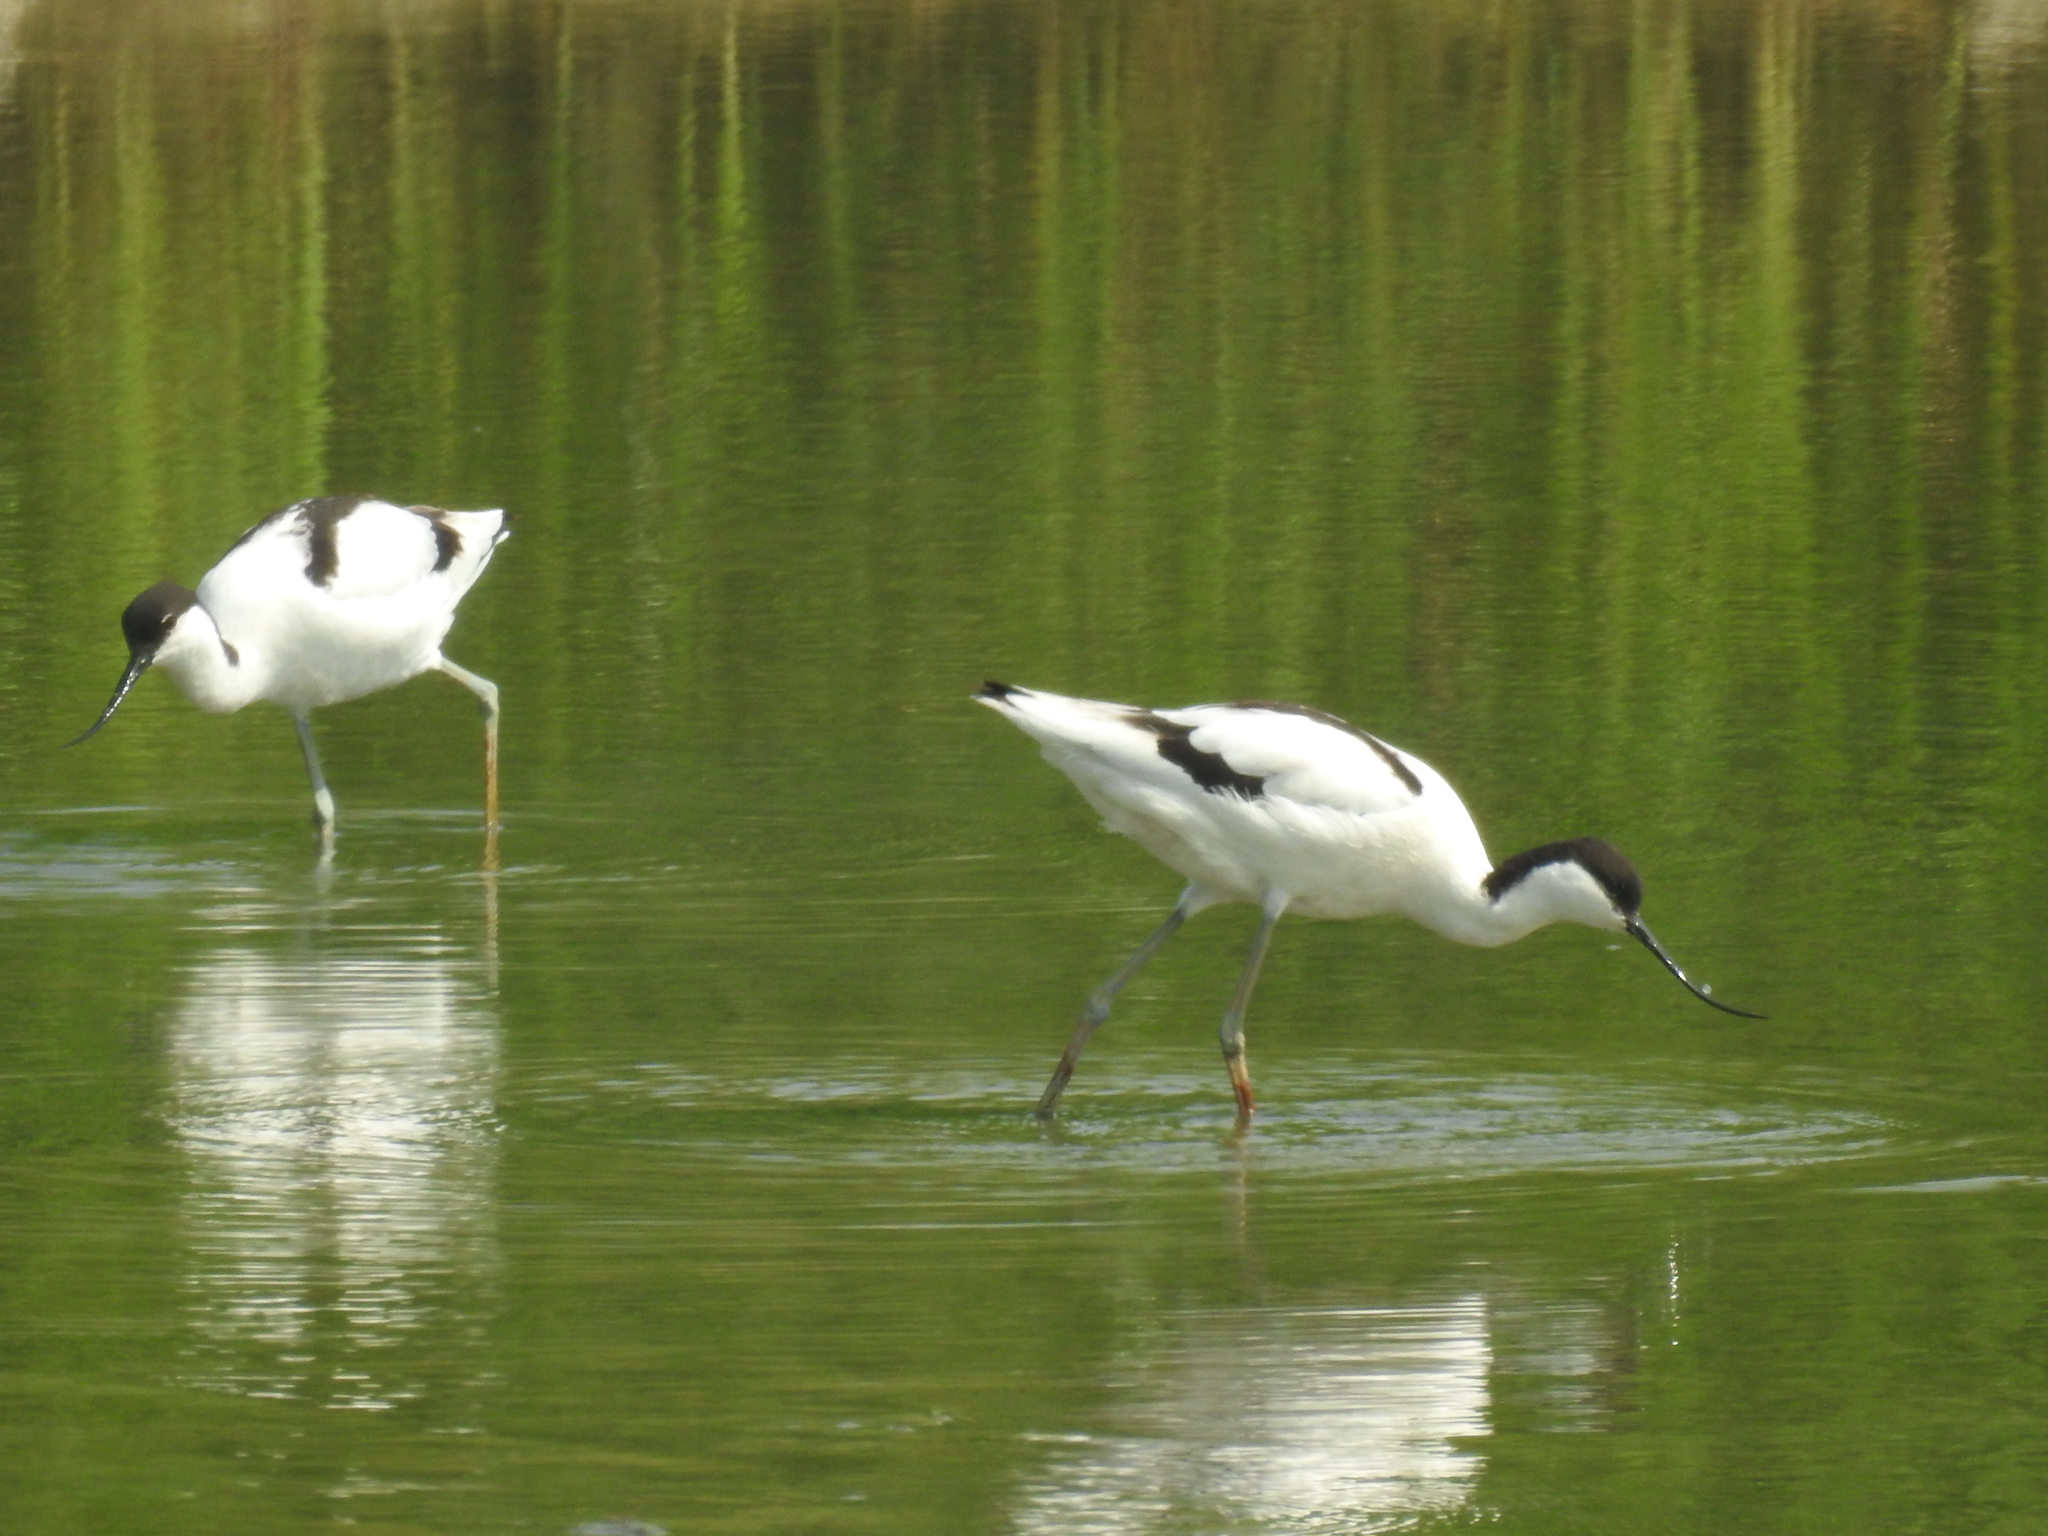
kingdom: Animalia
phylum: Chordata
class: Aves
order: Charadriiformes
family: Recurvirostridae
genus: Recurvirostra
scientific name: Recurvirostra avosetta
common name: Pied avocet
